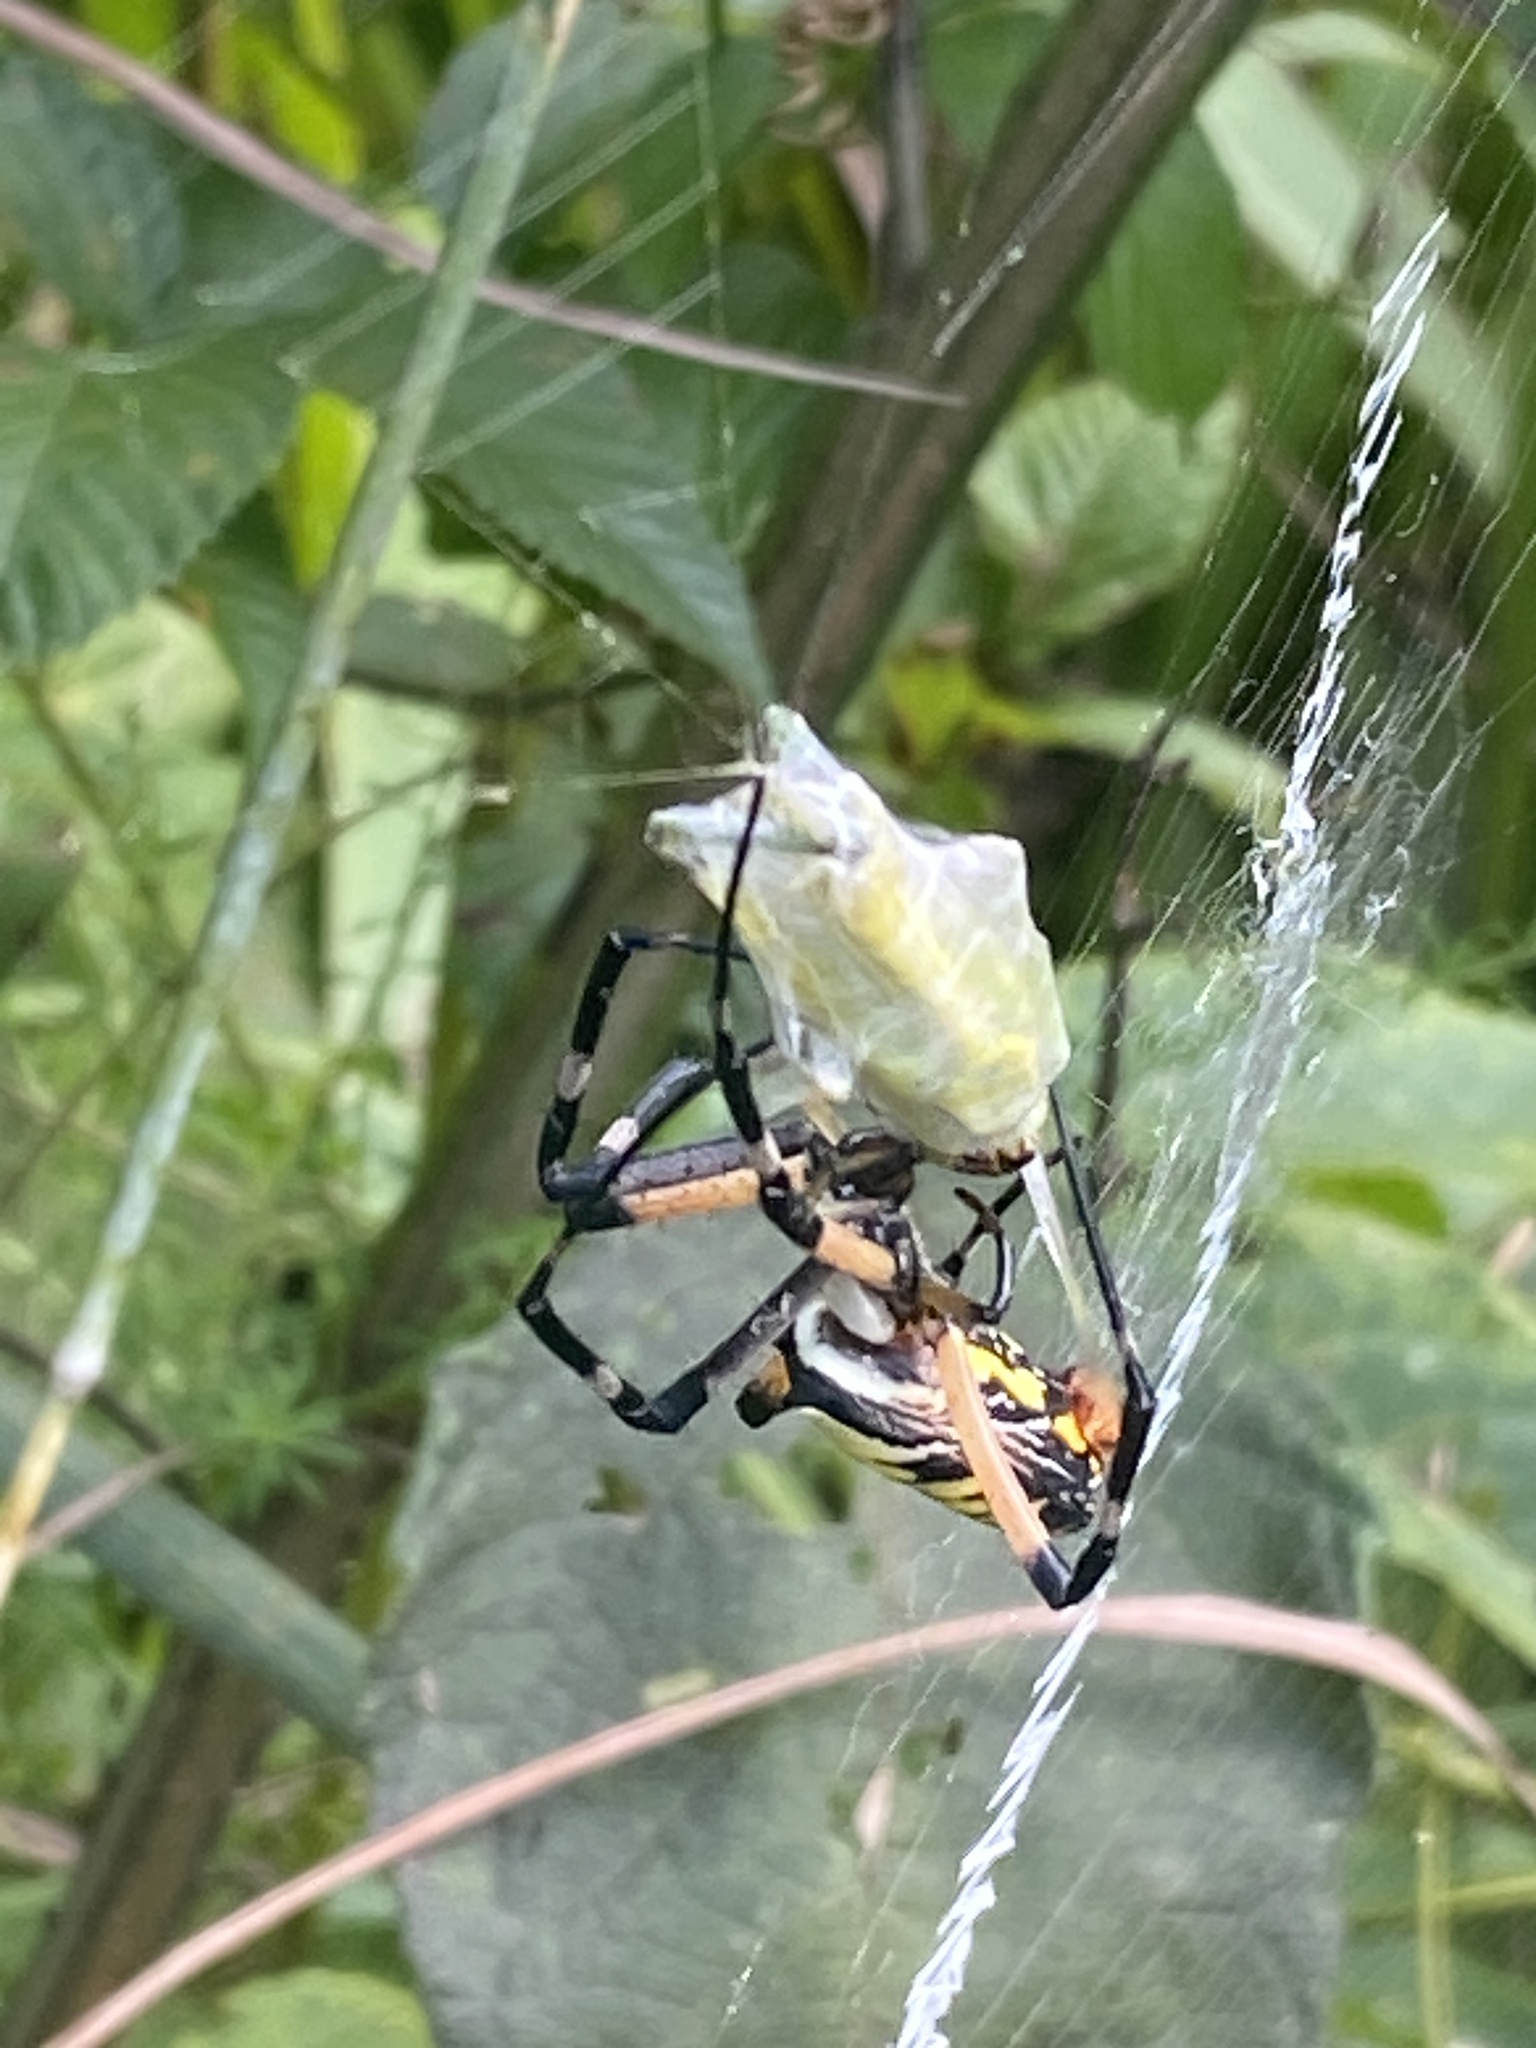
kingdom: Animalia
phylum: Arthropoda
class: Arachnida
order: Araneae
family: Araneidae
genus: Argiope
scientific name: Argiope aurantia
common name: Orb weavers
